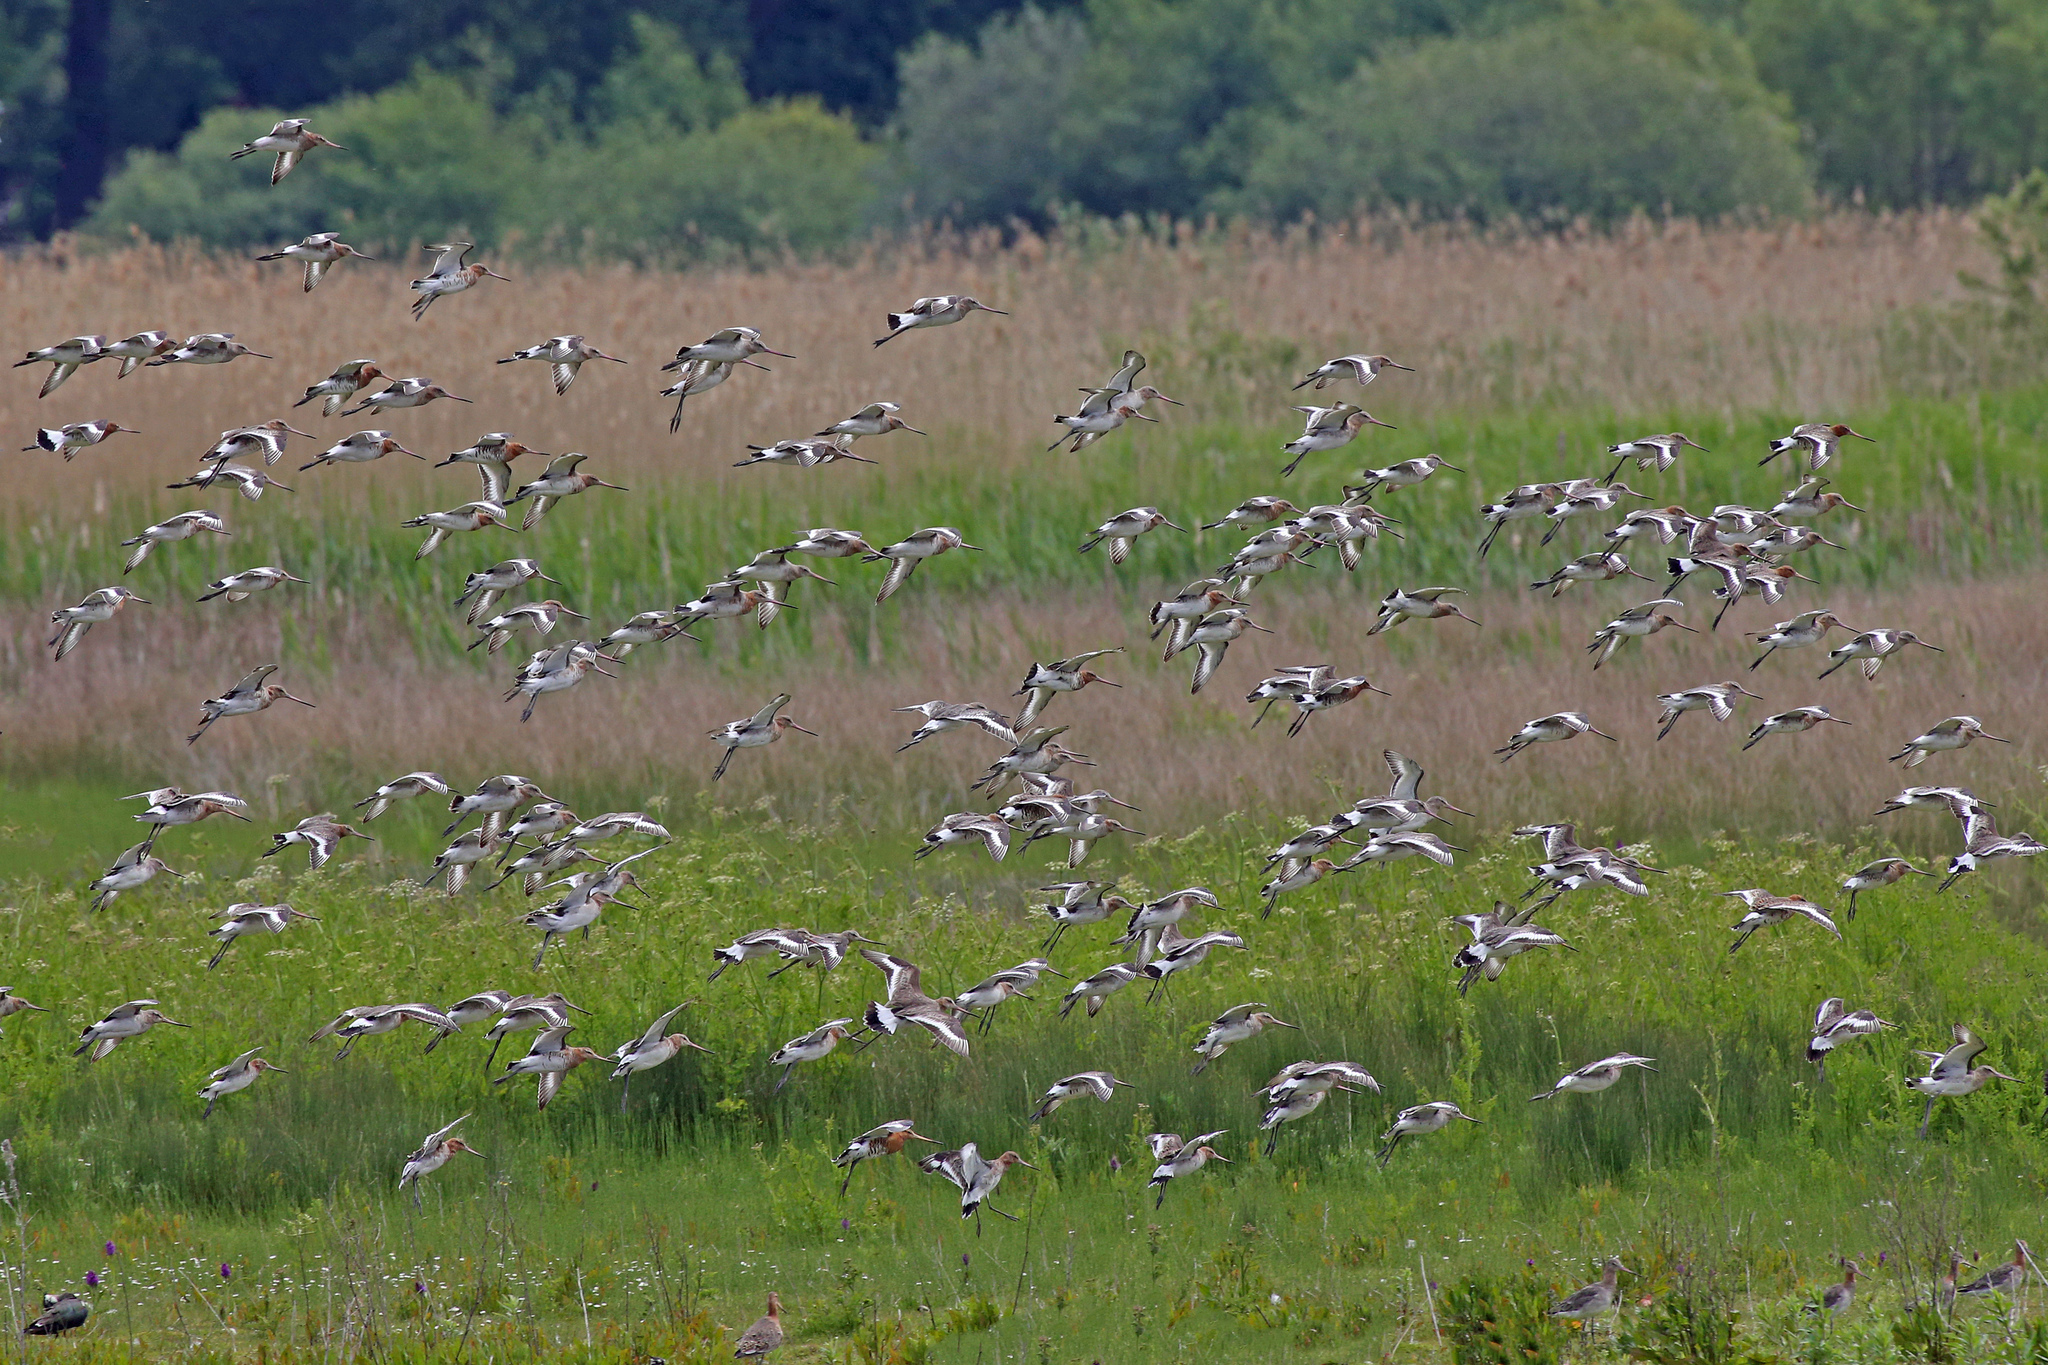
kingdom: Animalia
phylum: Chordata
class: Aves
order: Charadriiformes
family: Scolopacidae
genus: Limosa
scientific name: Limosa limosa
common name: Black-tailed godwit
